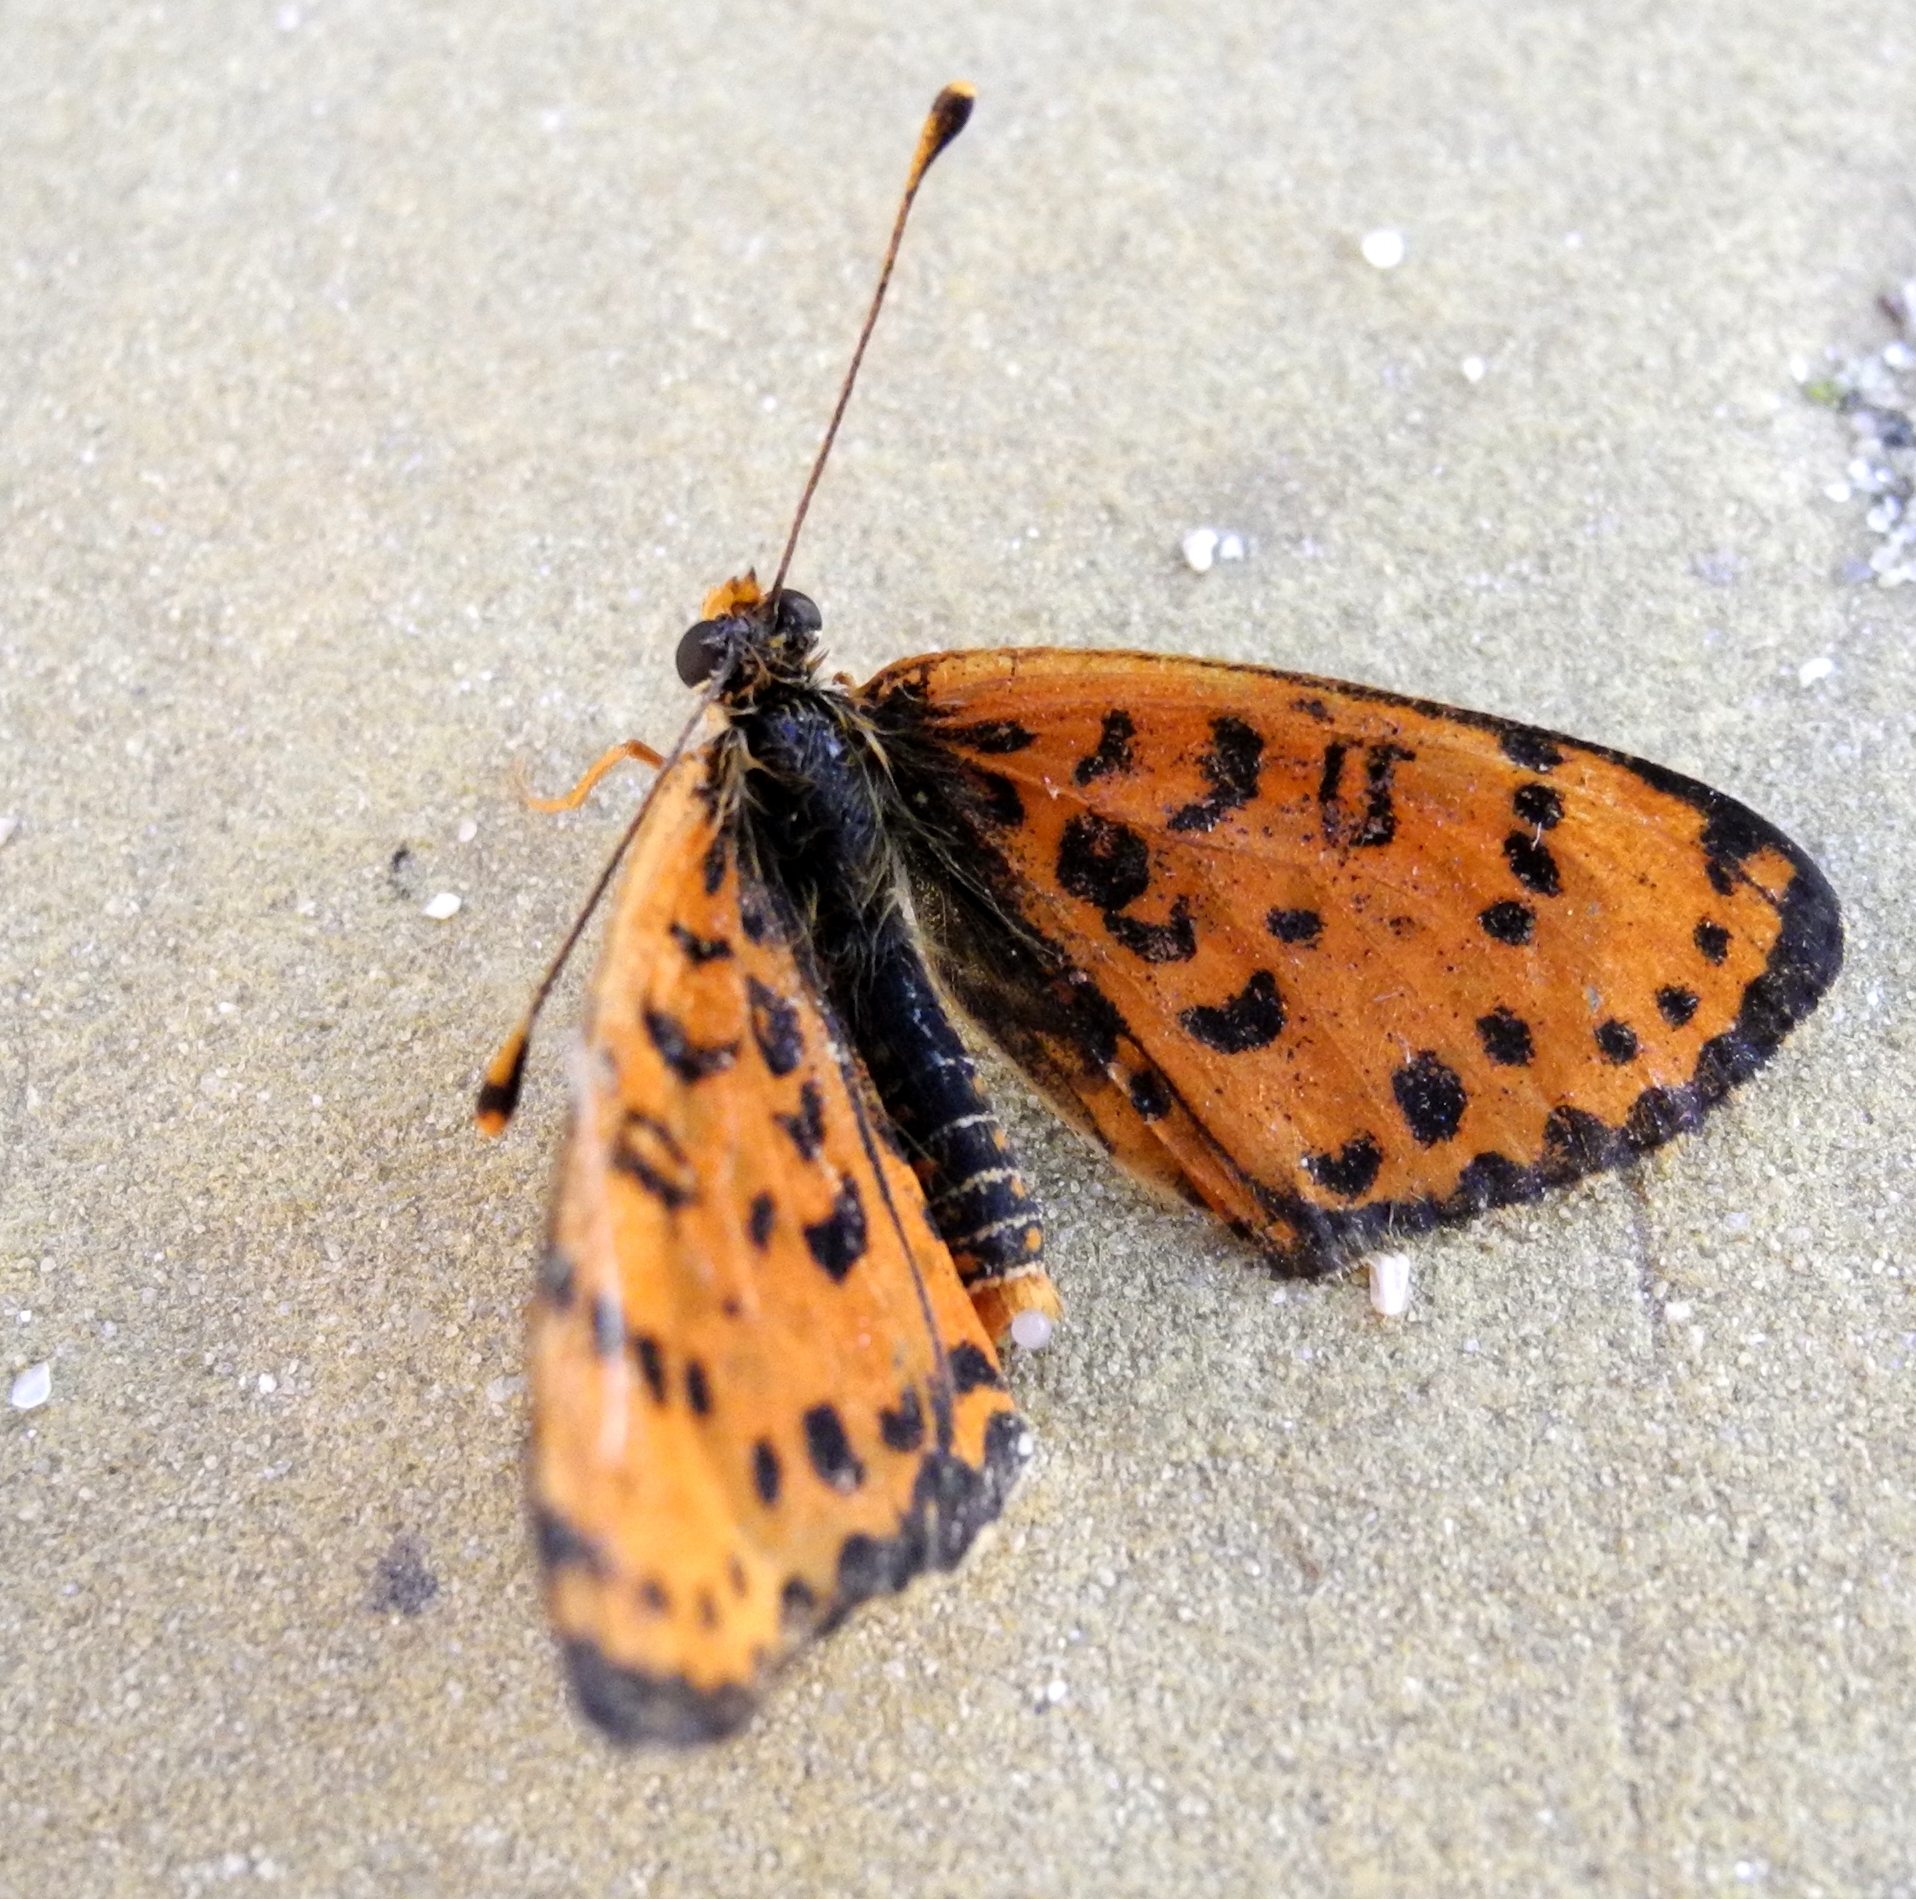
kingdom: Animalia
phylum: Arthropoda
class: Insecta
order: Lepidoptera
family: Nymphalidae
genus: Melitaea
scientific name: Melitaea didyma
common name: Spotted fritillary
